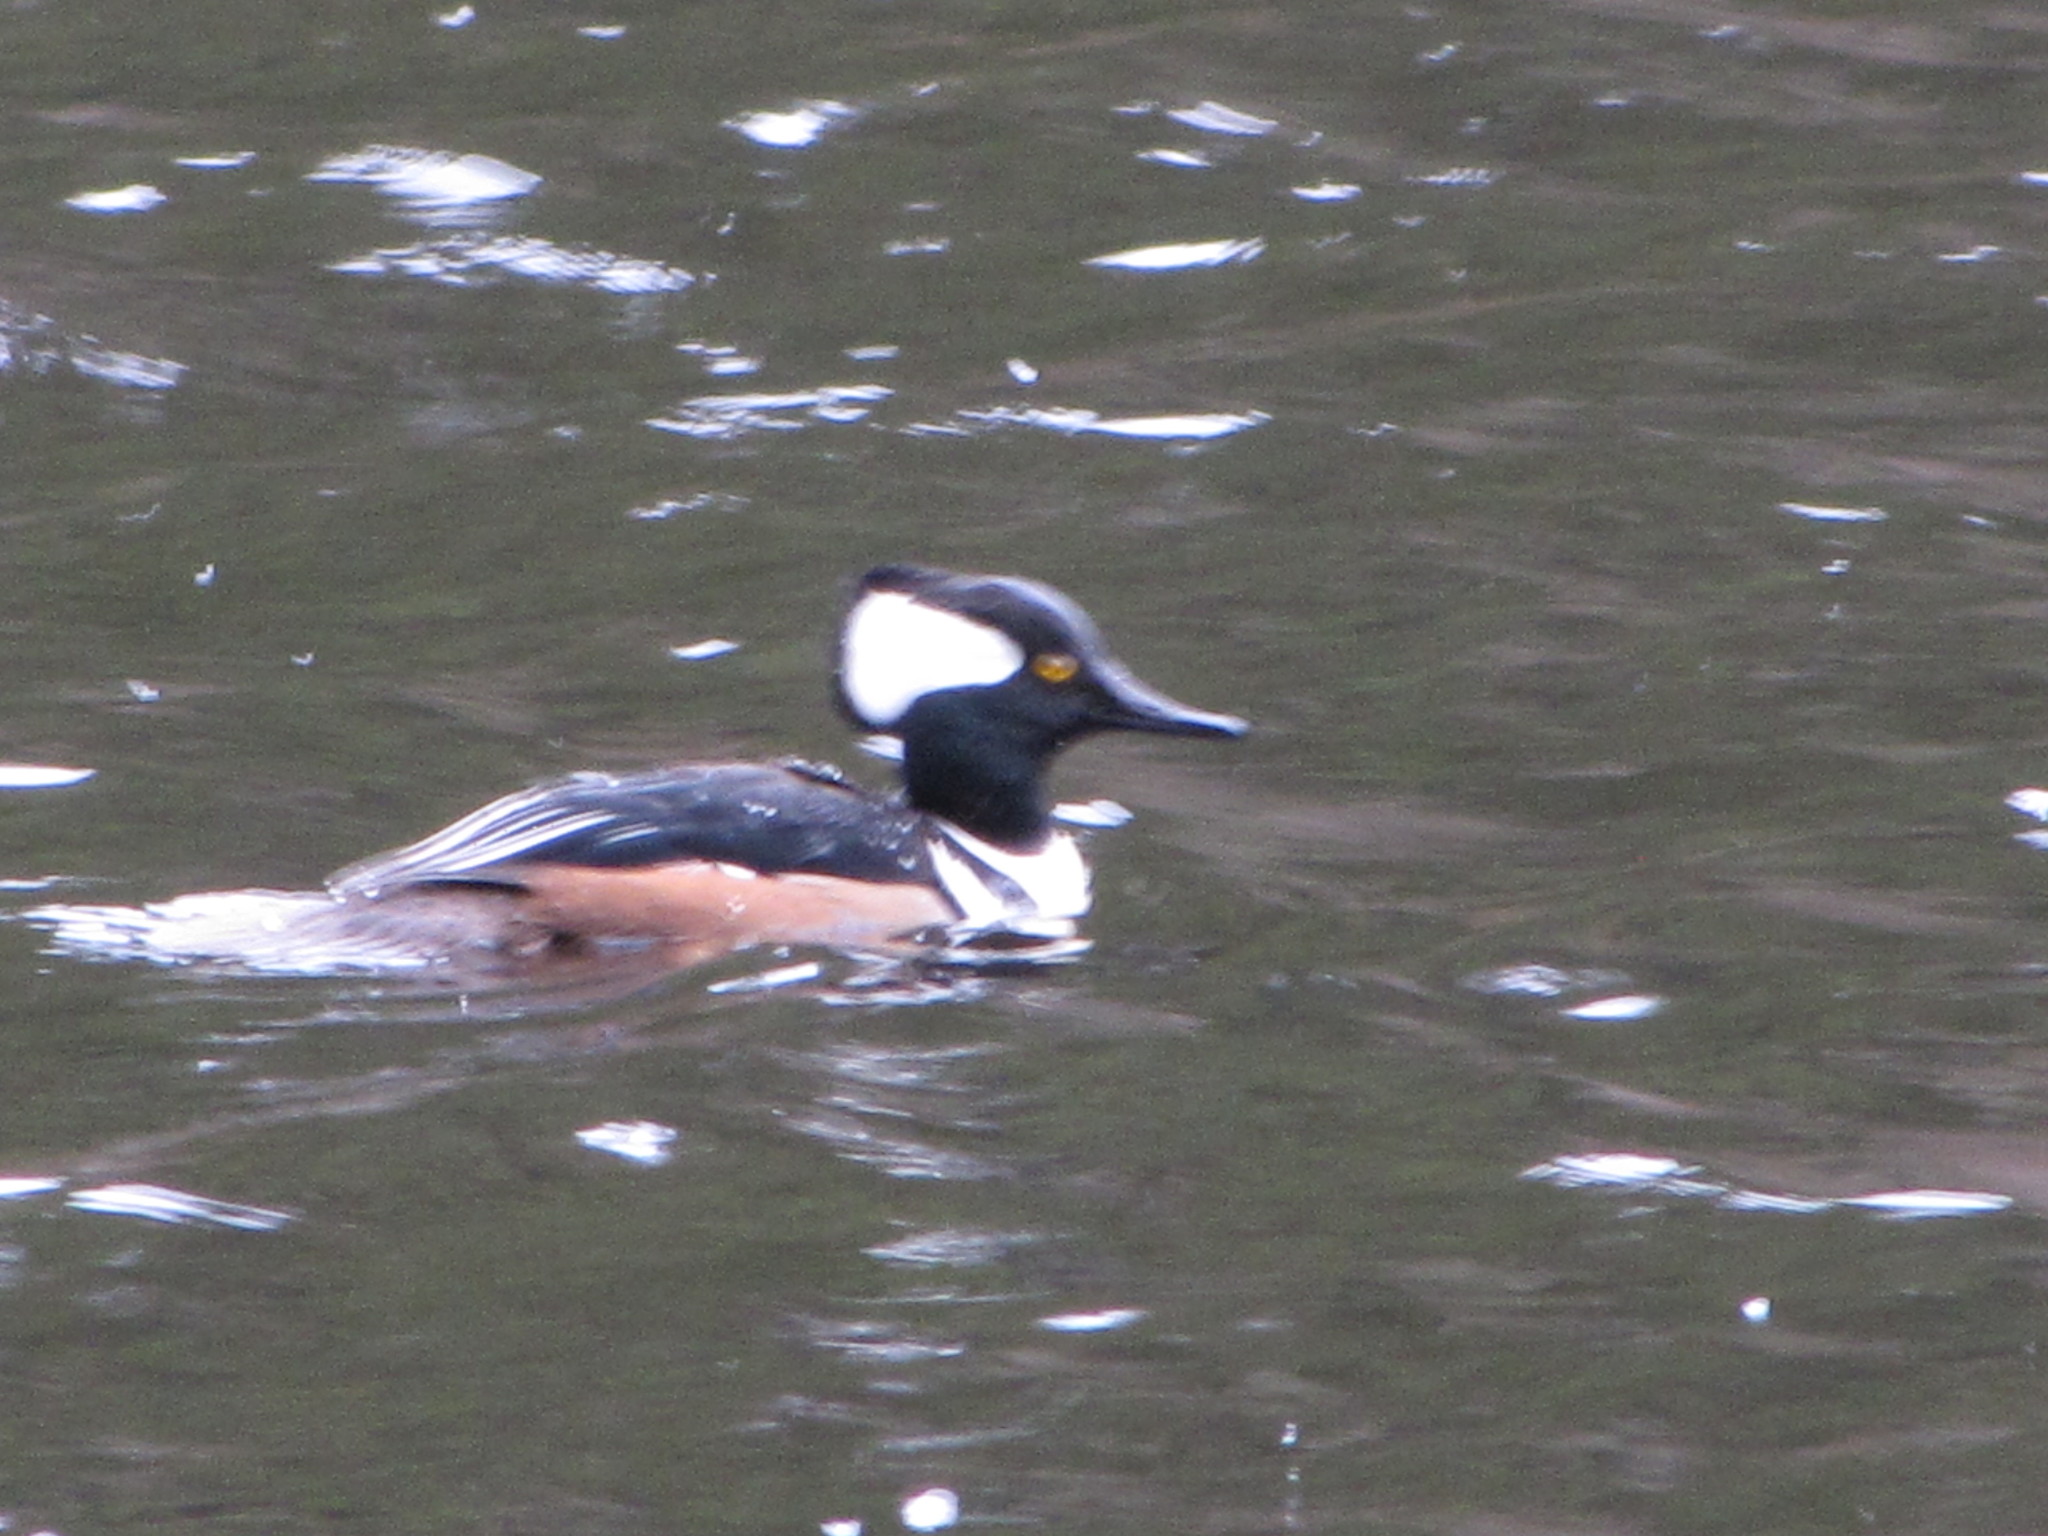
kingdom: Animalia
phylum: Chordata
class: Aves
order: Anseriformes
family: Anatidae
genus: Lophodytes
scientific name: Lophodytes cucullatus
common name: Hooded merganser
